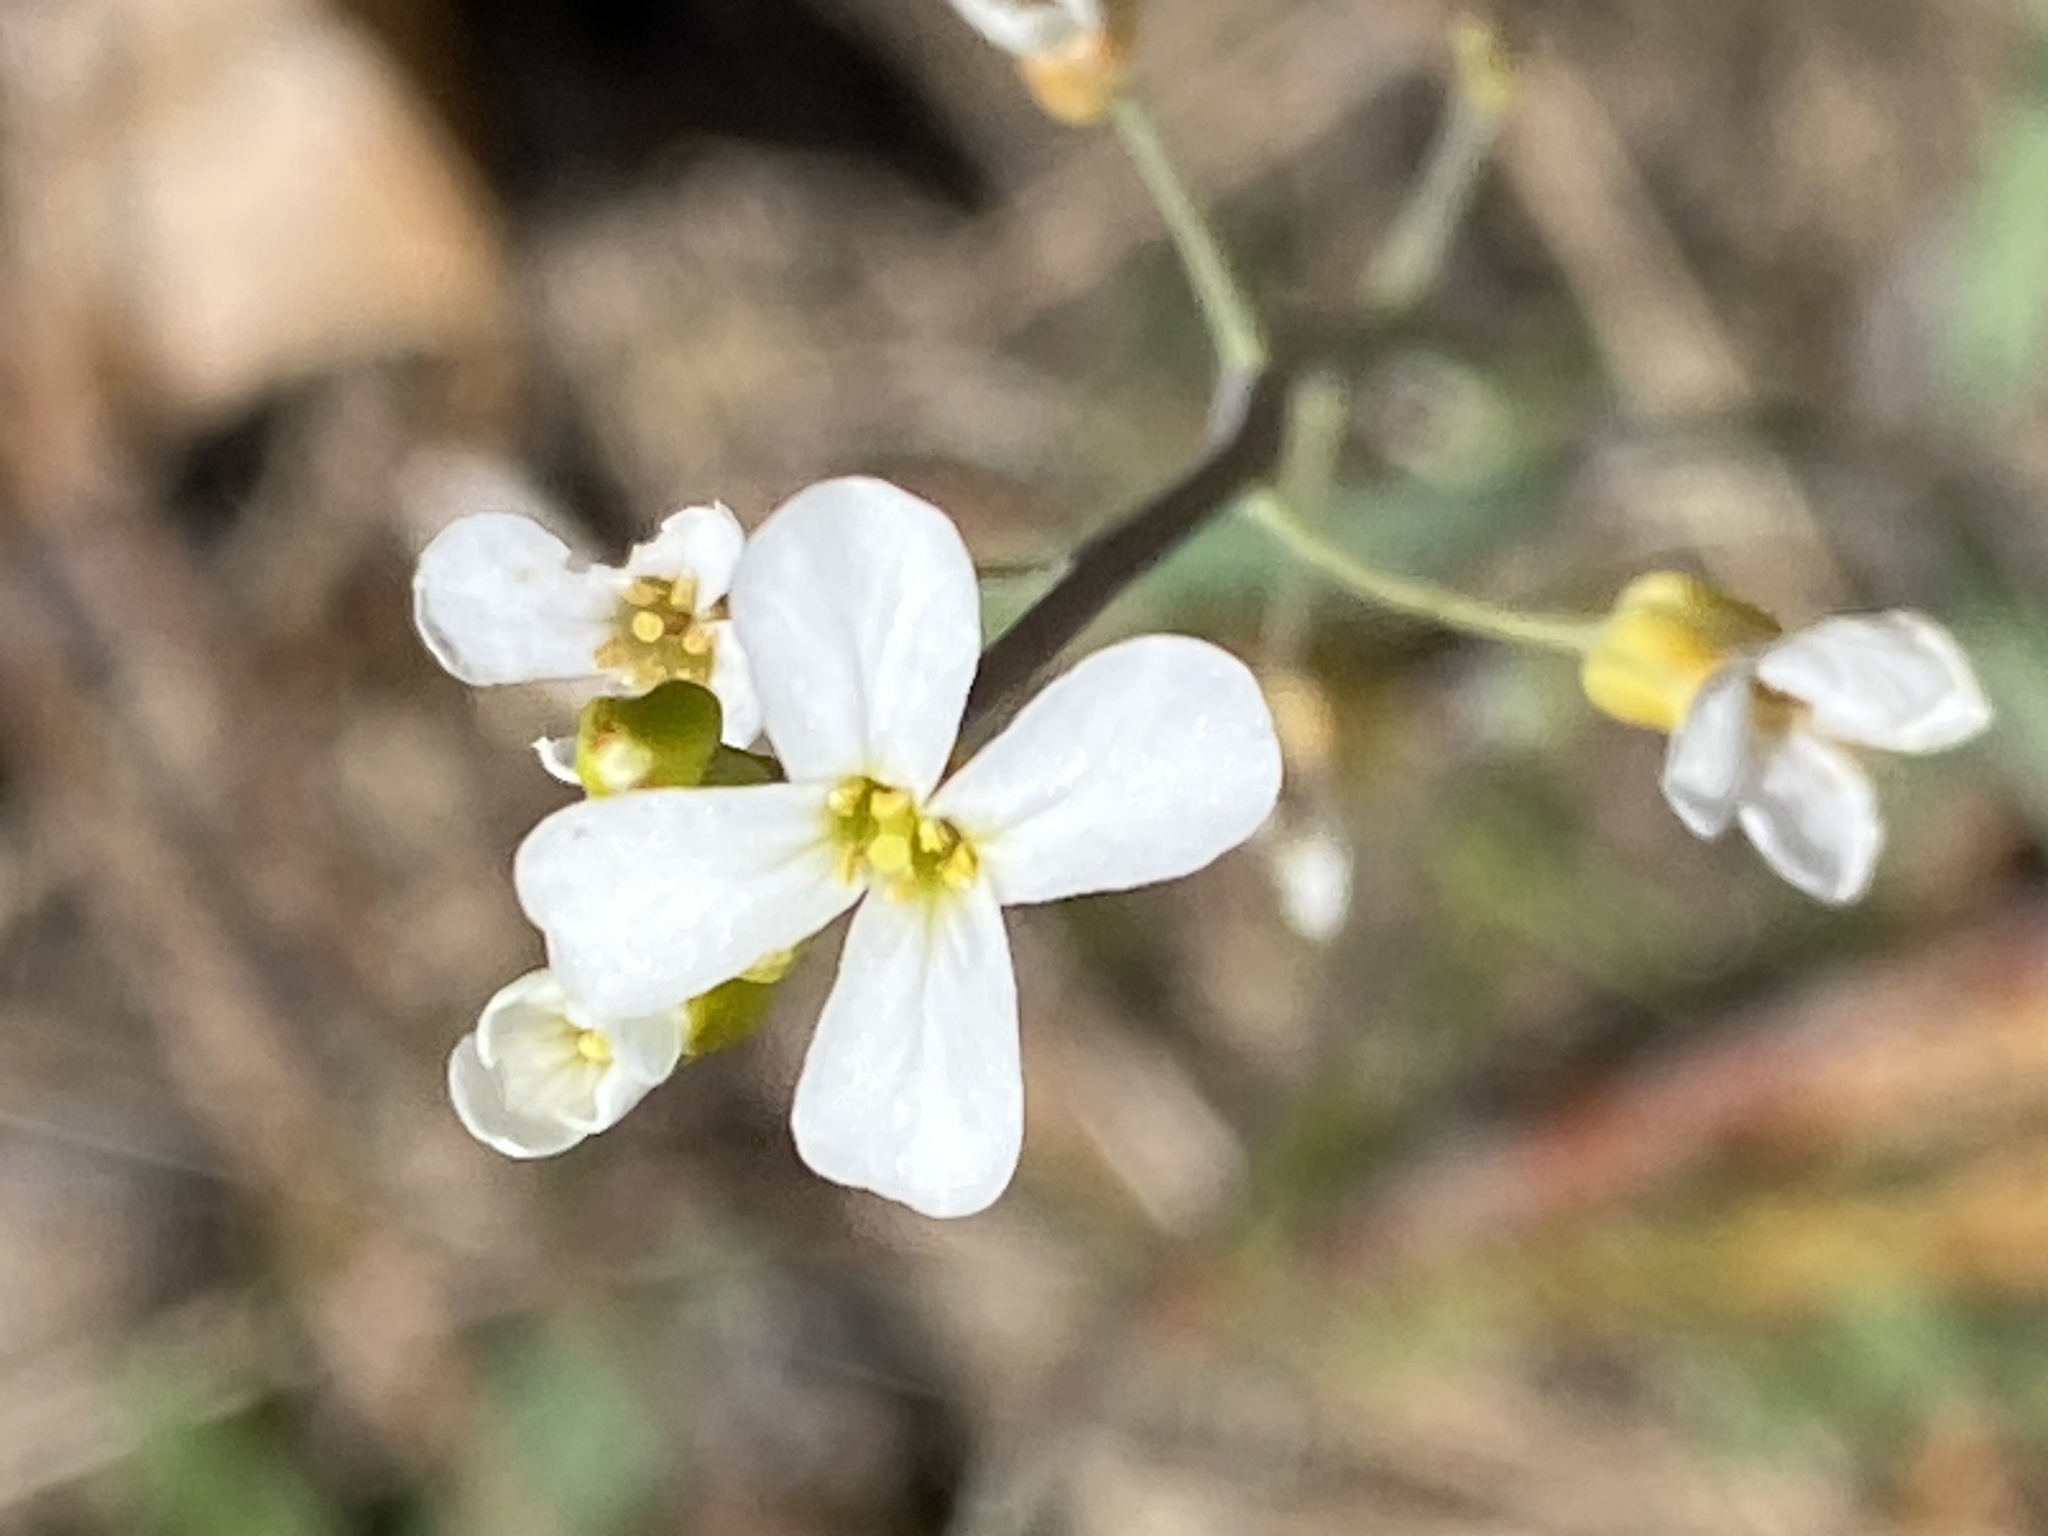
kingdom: Plantae
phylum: Tracheophyta
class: Magnoliopsida
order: Brassicales
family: Brassicaceae
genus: Arabidopsis
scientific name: Arabidopsis lyrata
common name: Lyrate rockcress
